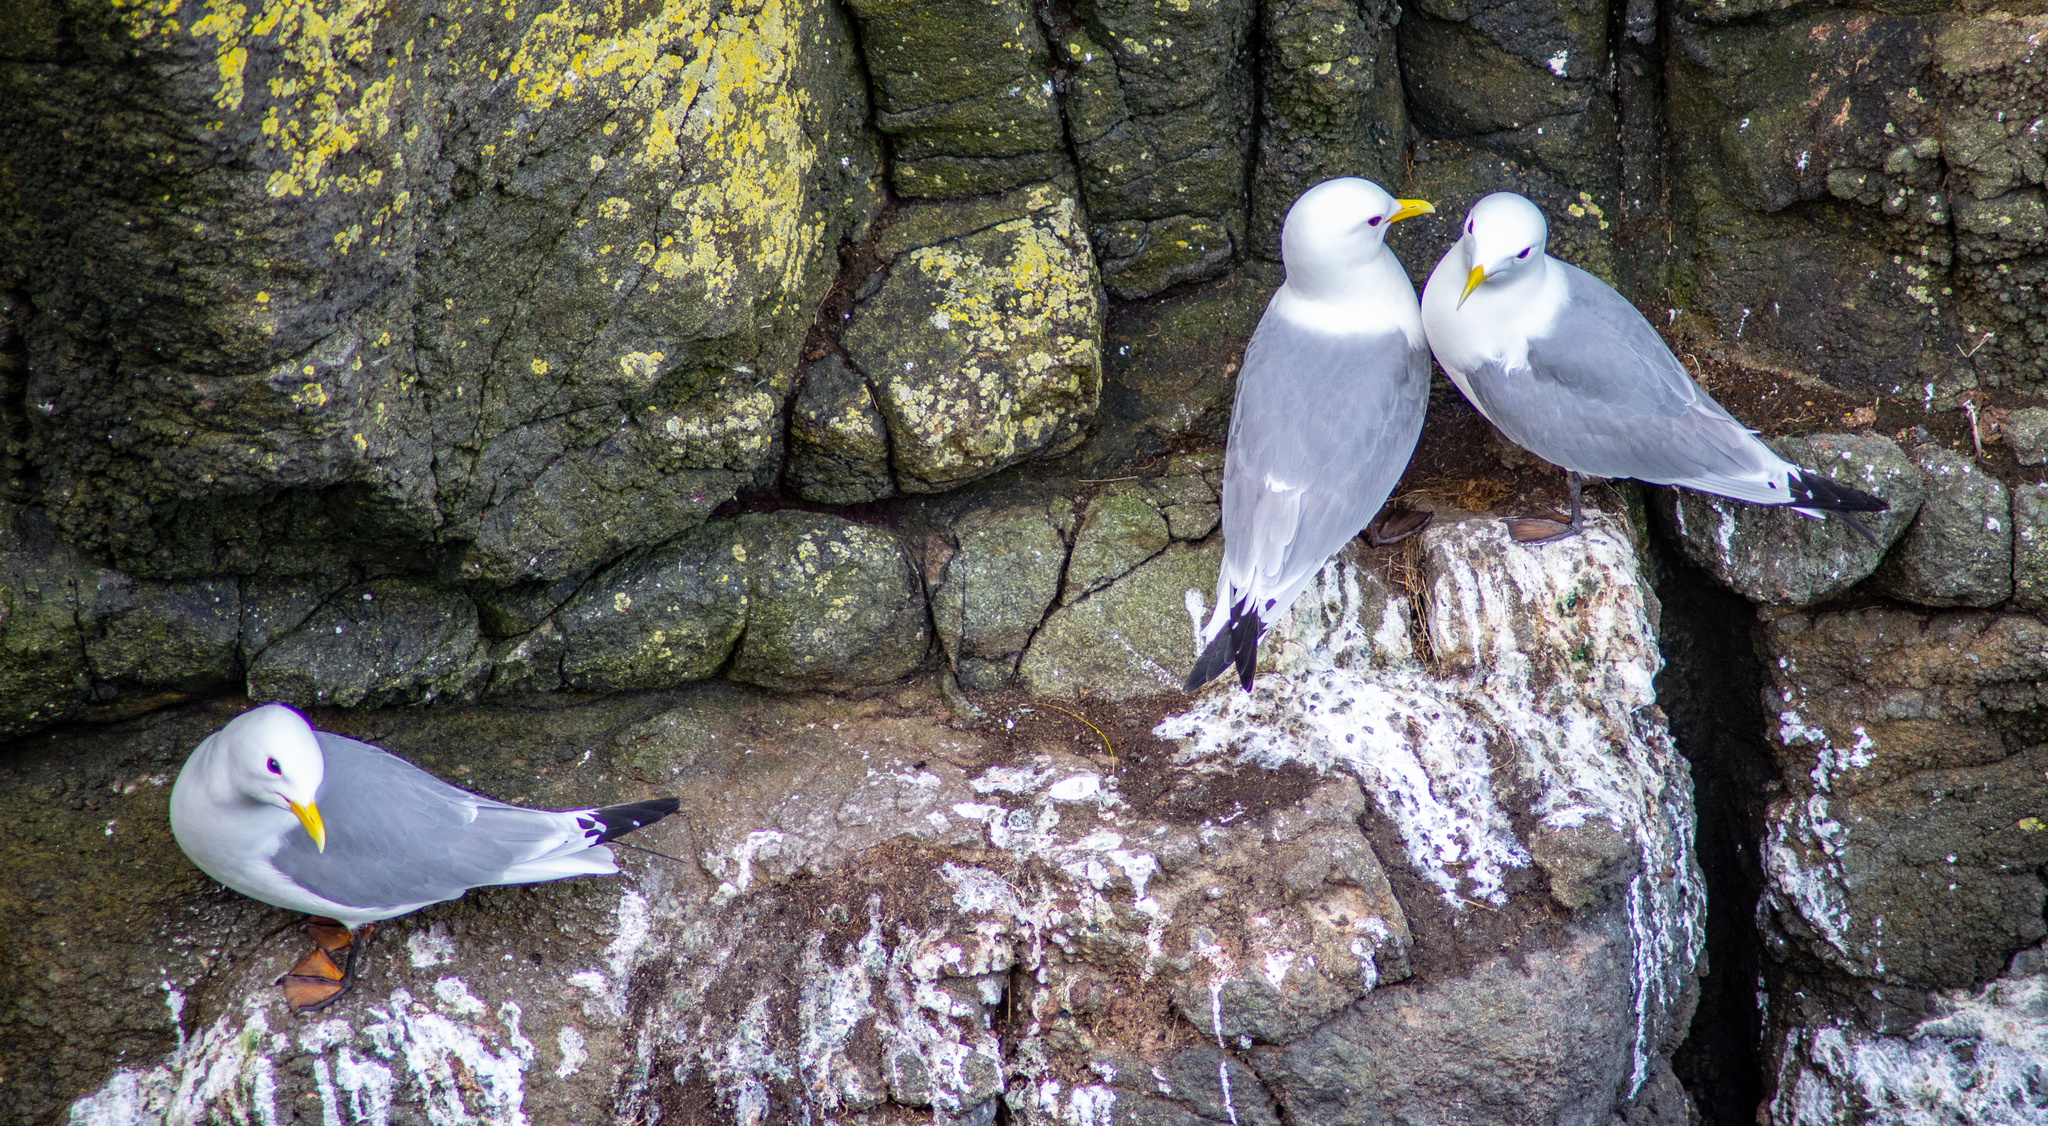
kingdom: Animalia
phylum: Chordata
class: Aves
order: Charadriiformes
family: Laridae
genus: Rissa
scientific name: Rissa tridactyla
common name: Black-legged kittiwake
